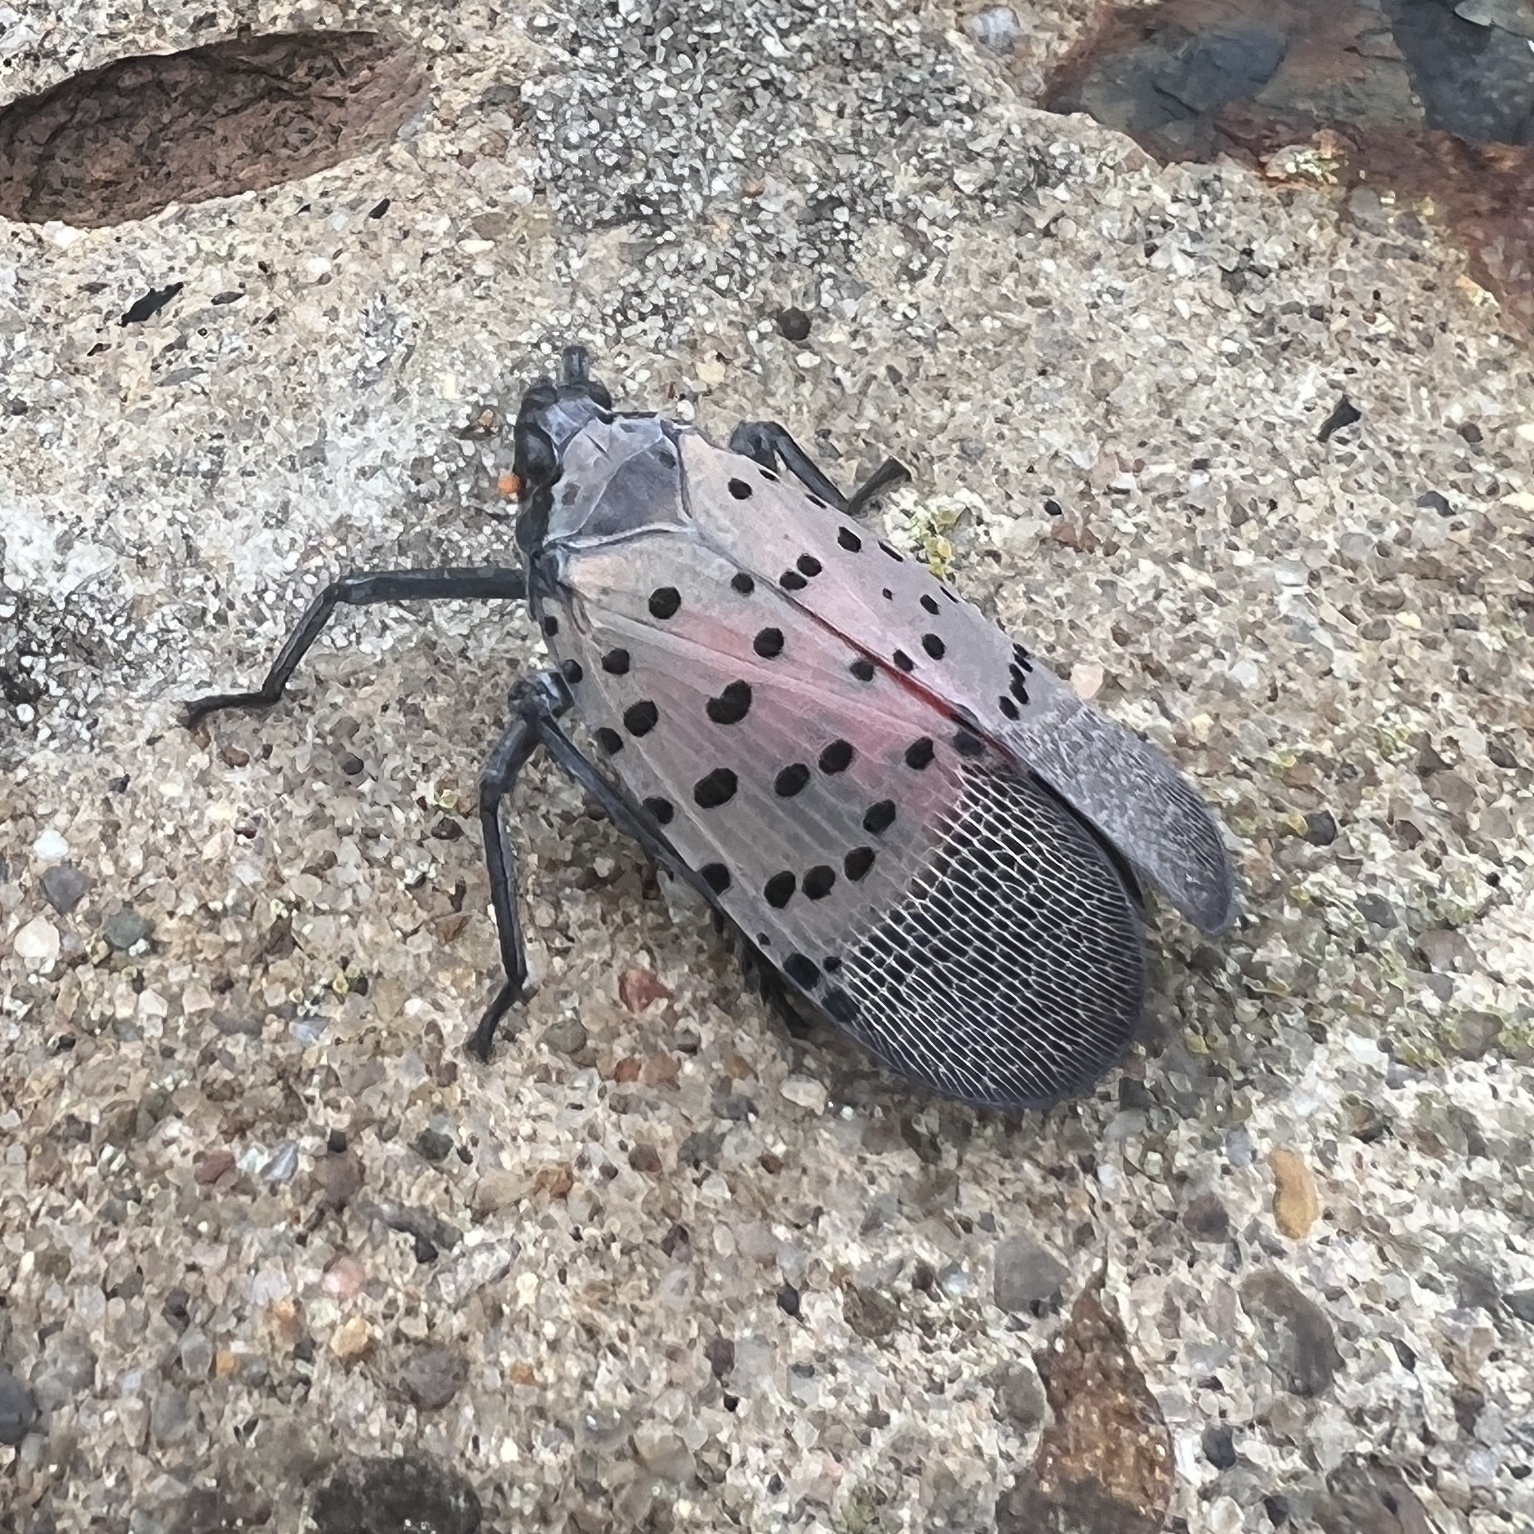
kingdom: Animalia
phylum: Arthropoda
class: Insecta
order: Hemiptera
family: Fulgoridae
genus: Lycorma
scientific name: Lycorma delicatula
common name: Spotted lanternfly
